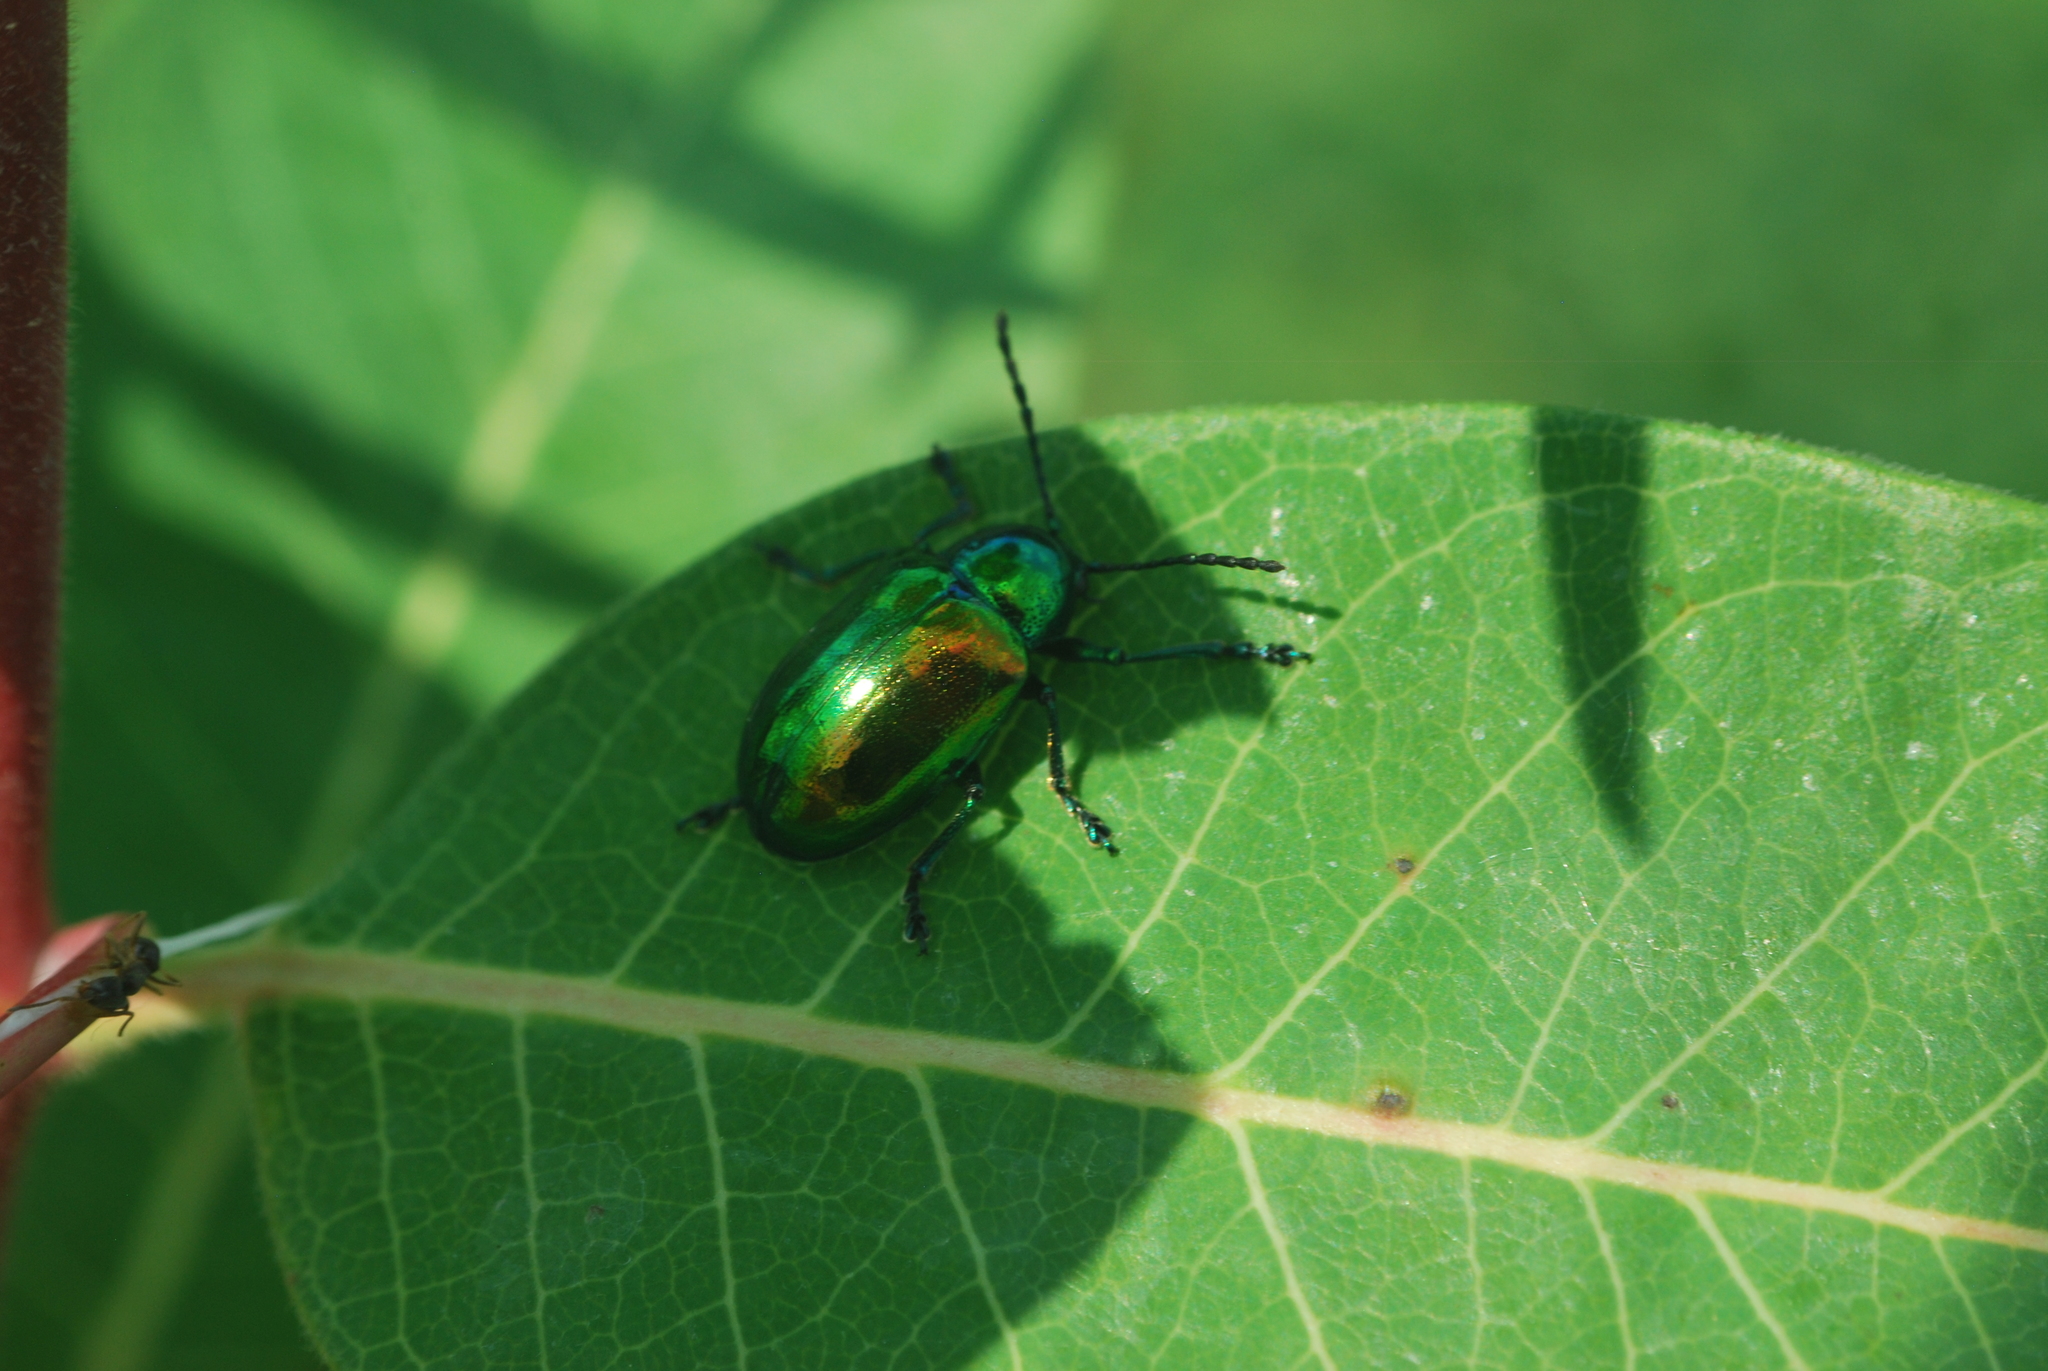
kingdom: Animalia
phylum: Arthropoda
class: Insecta
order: Coleoptera
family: Chrysomelidae
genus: Chrysochus
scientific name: Chrysochus auratus
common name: Dogbane leaf beetle
